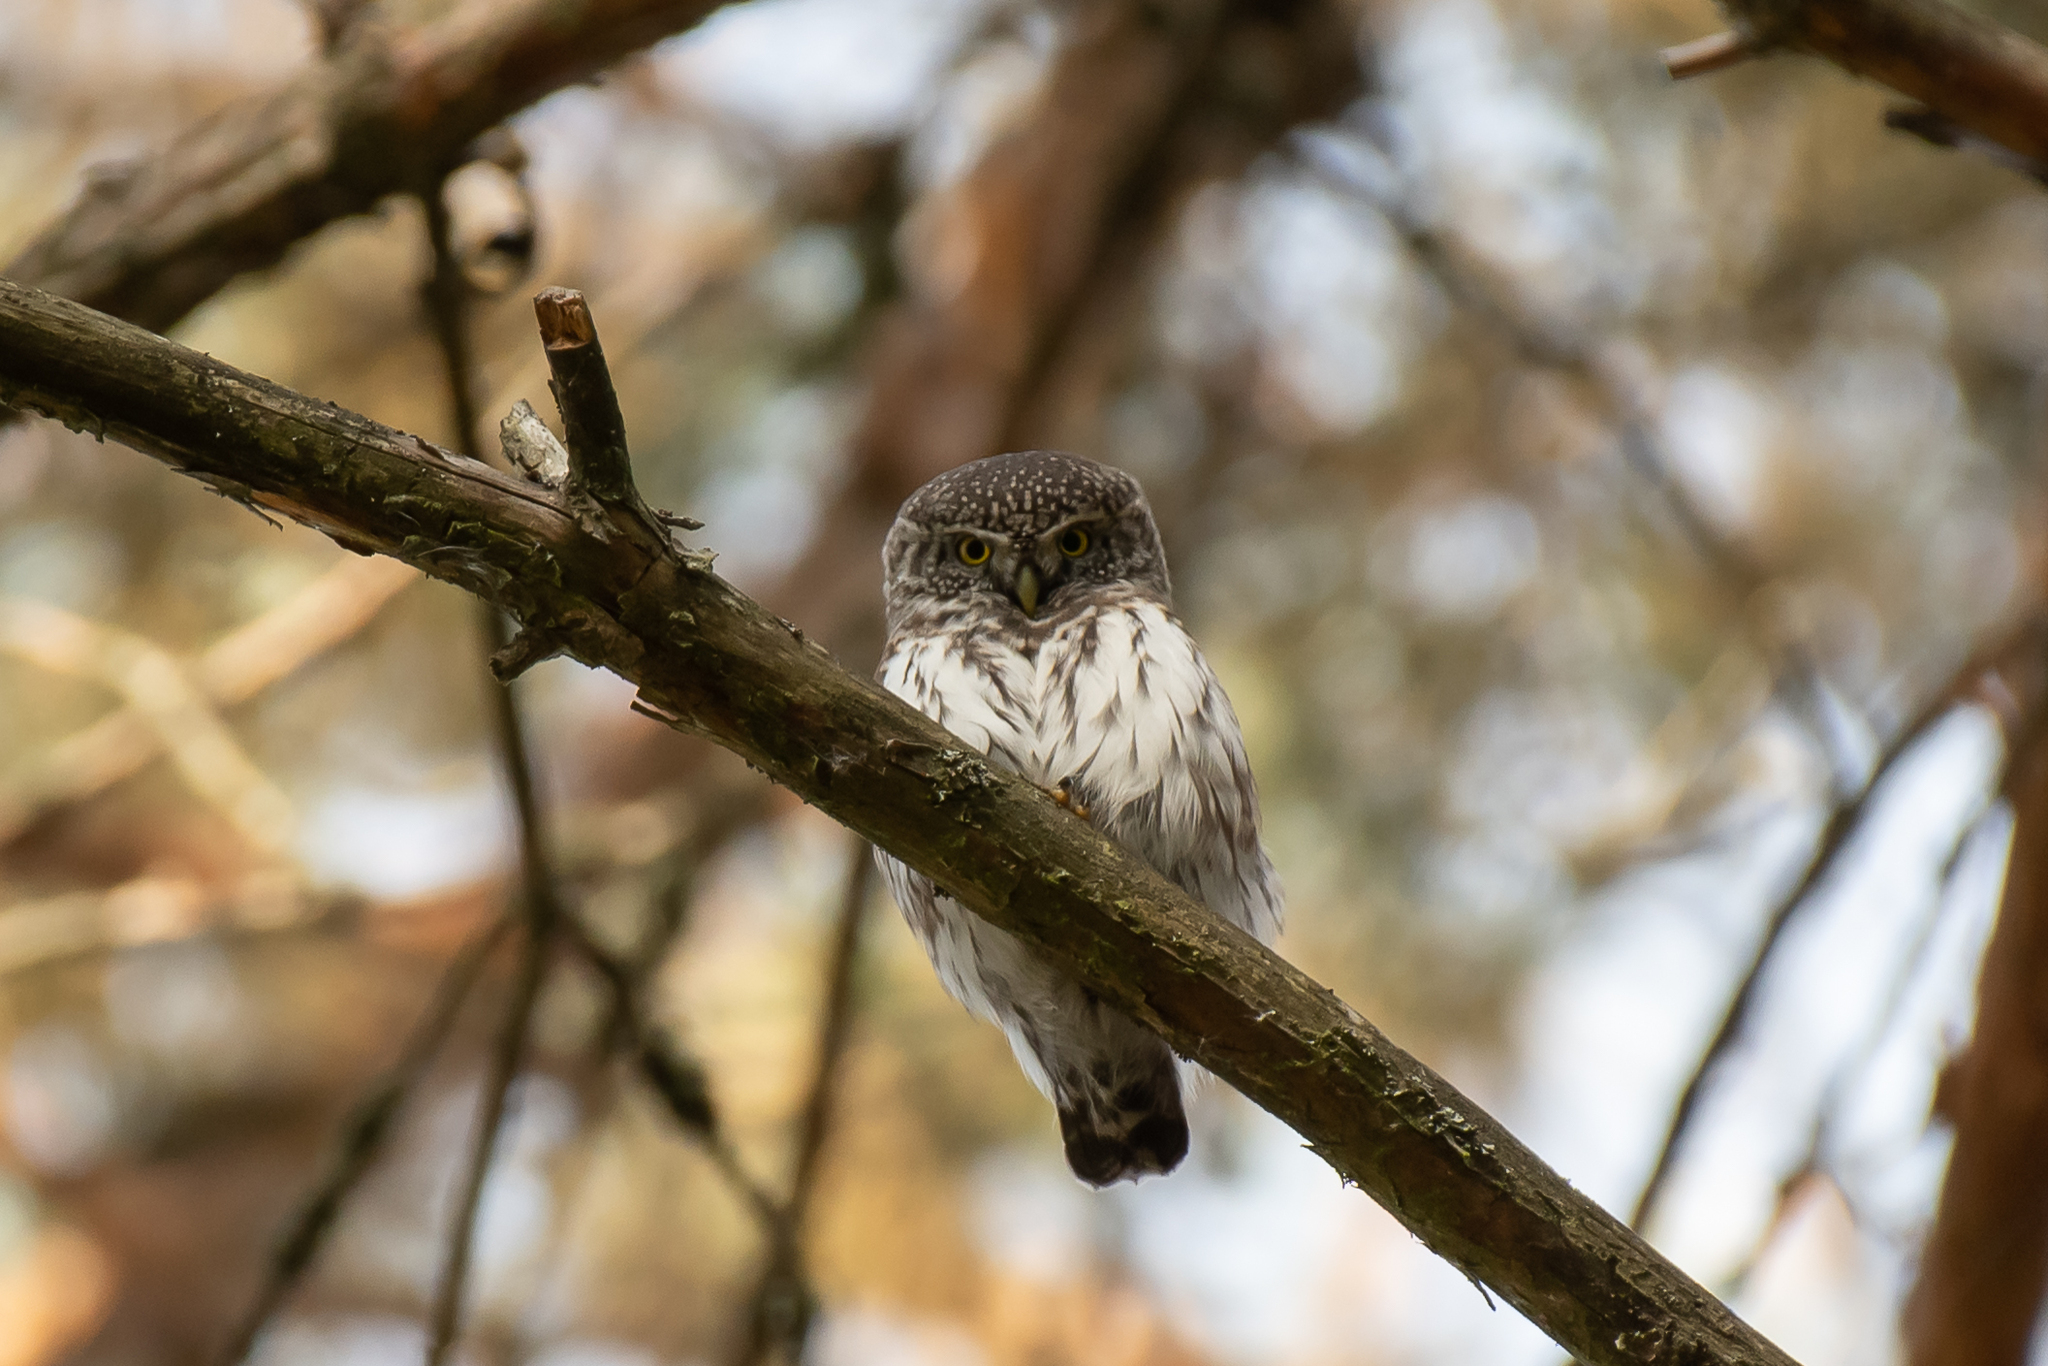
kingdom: Animalia
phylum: Chordata
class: Aves
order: Strigiformes
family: Strigidae
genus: Glaucidium
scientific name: Glaucidium passerinum
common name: Eurasian pygmy owl
